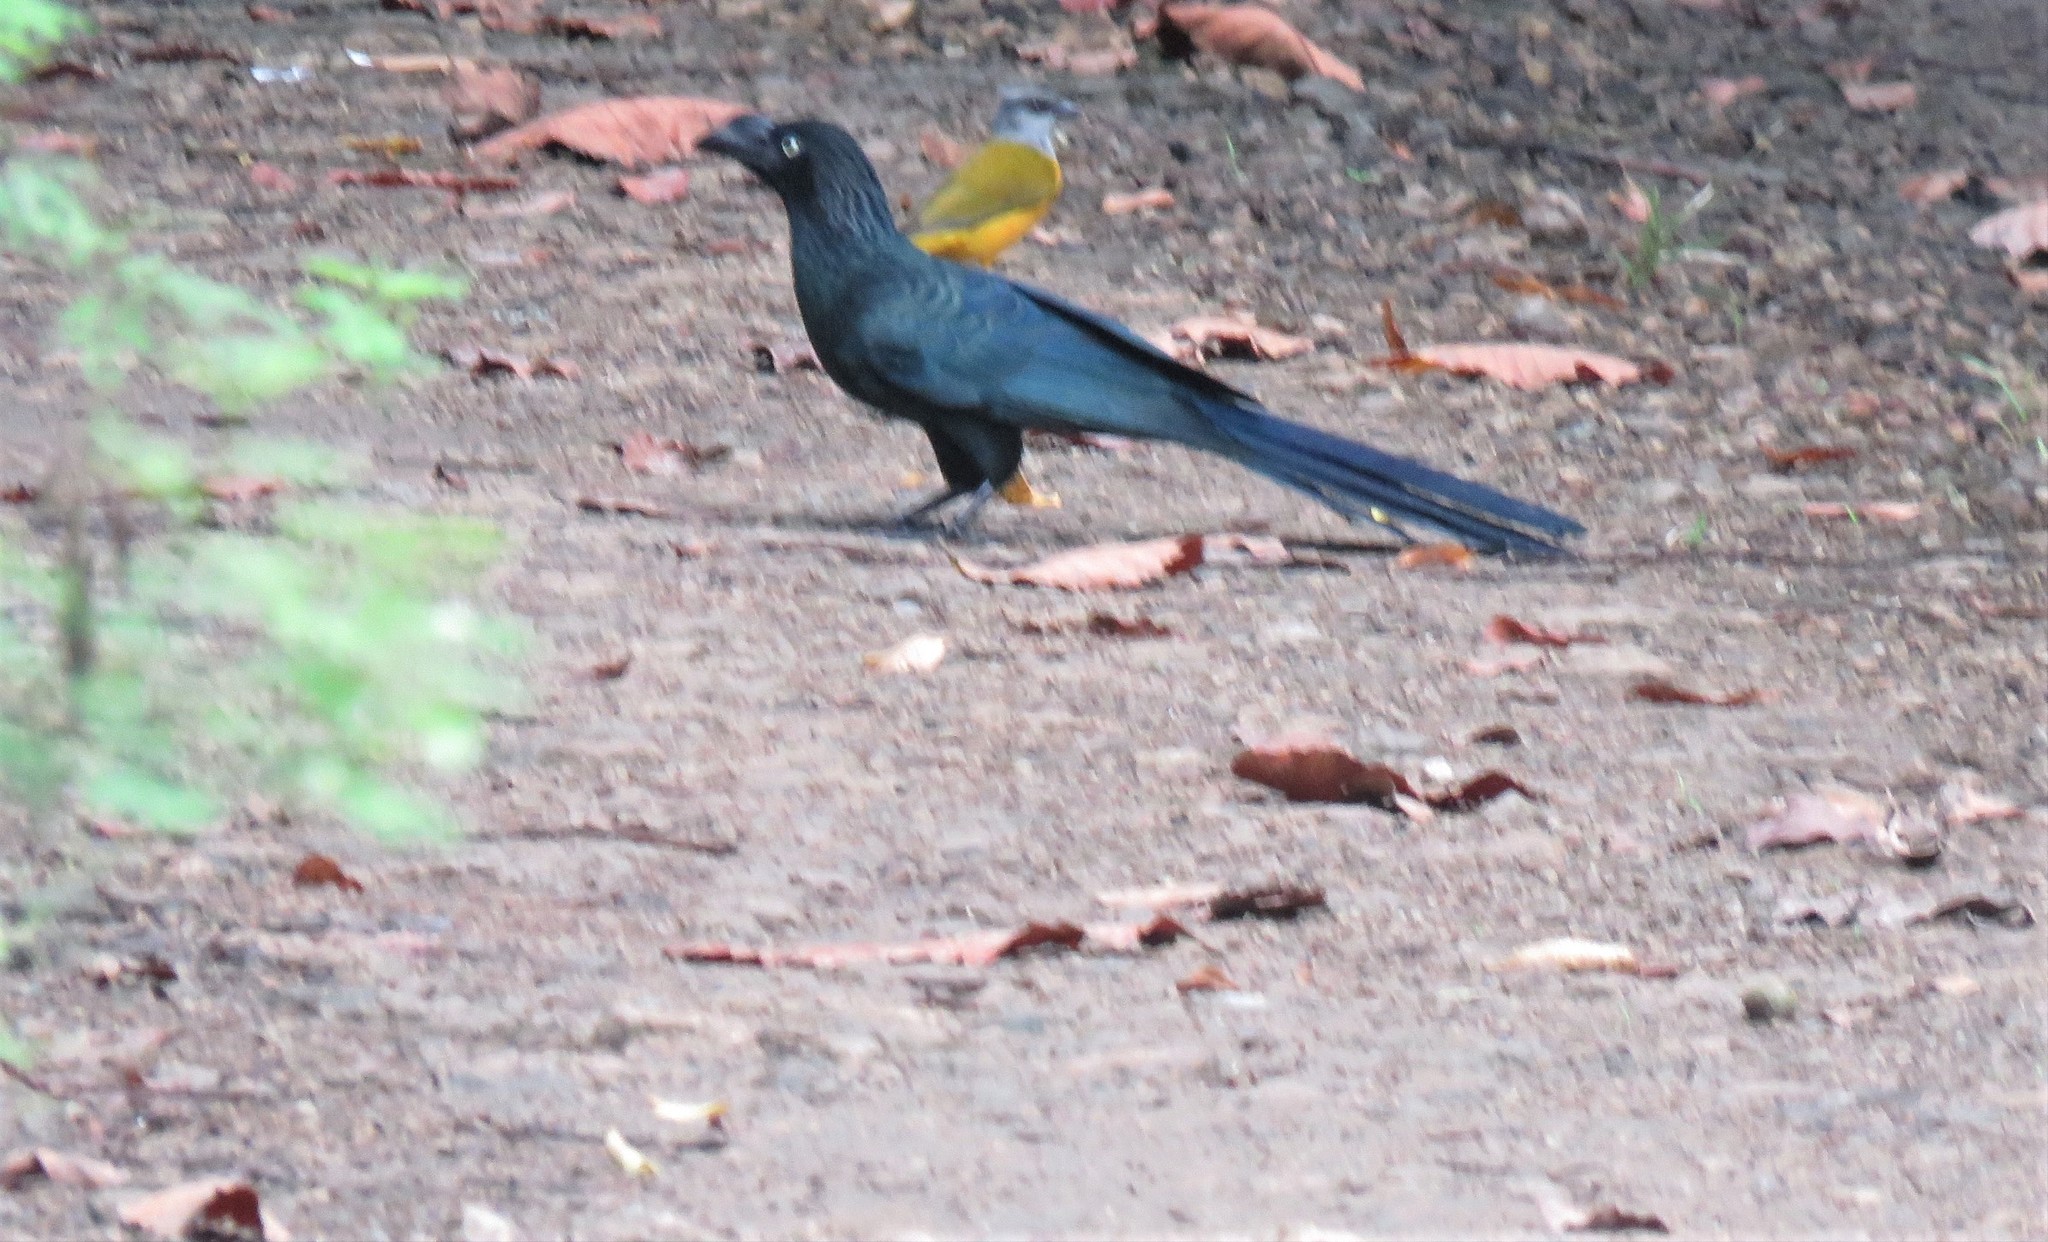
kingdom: Animalia
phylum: Chordata
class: Aves
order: Cuculiformes
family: Cuculidae
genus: Crotophaga
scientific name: Crotophaga major
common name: Greater ani
